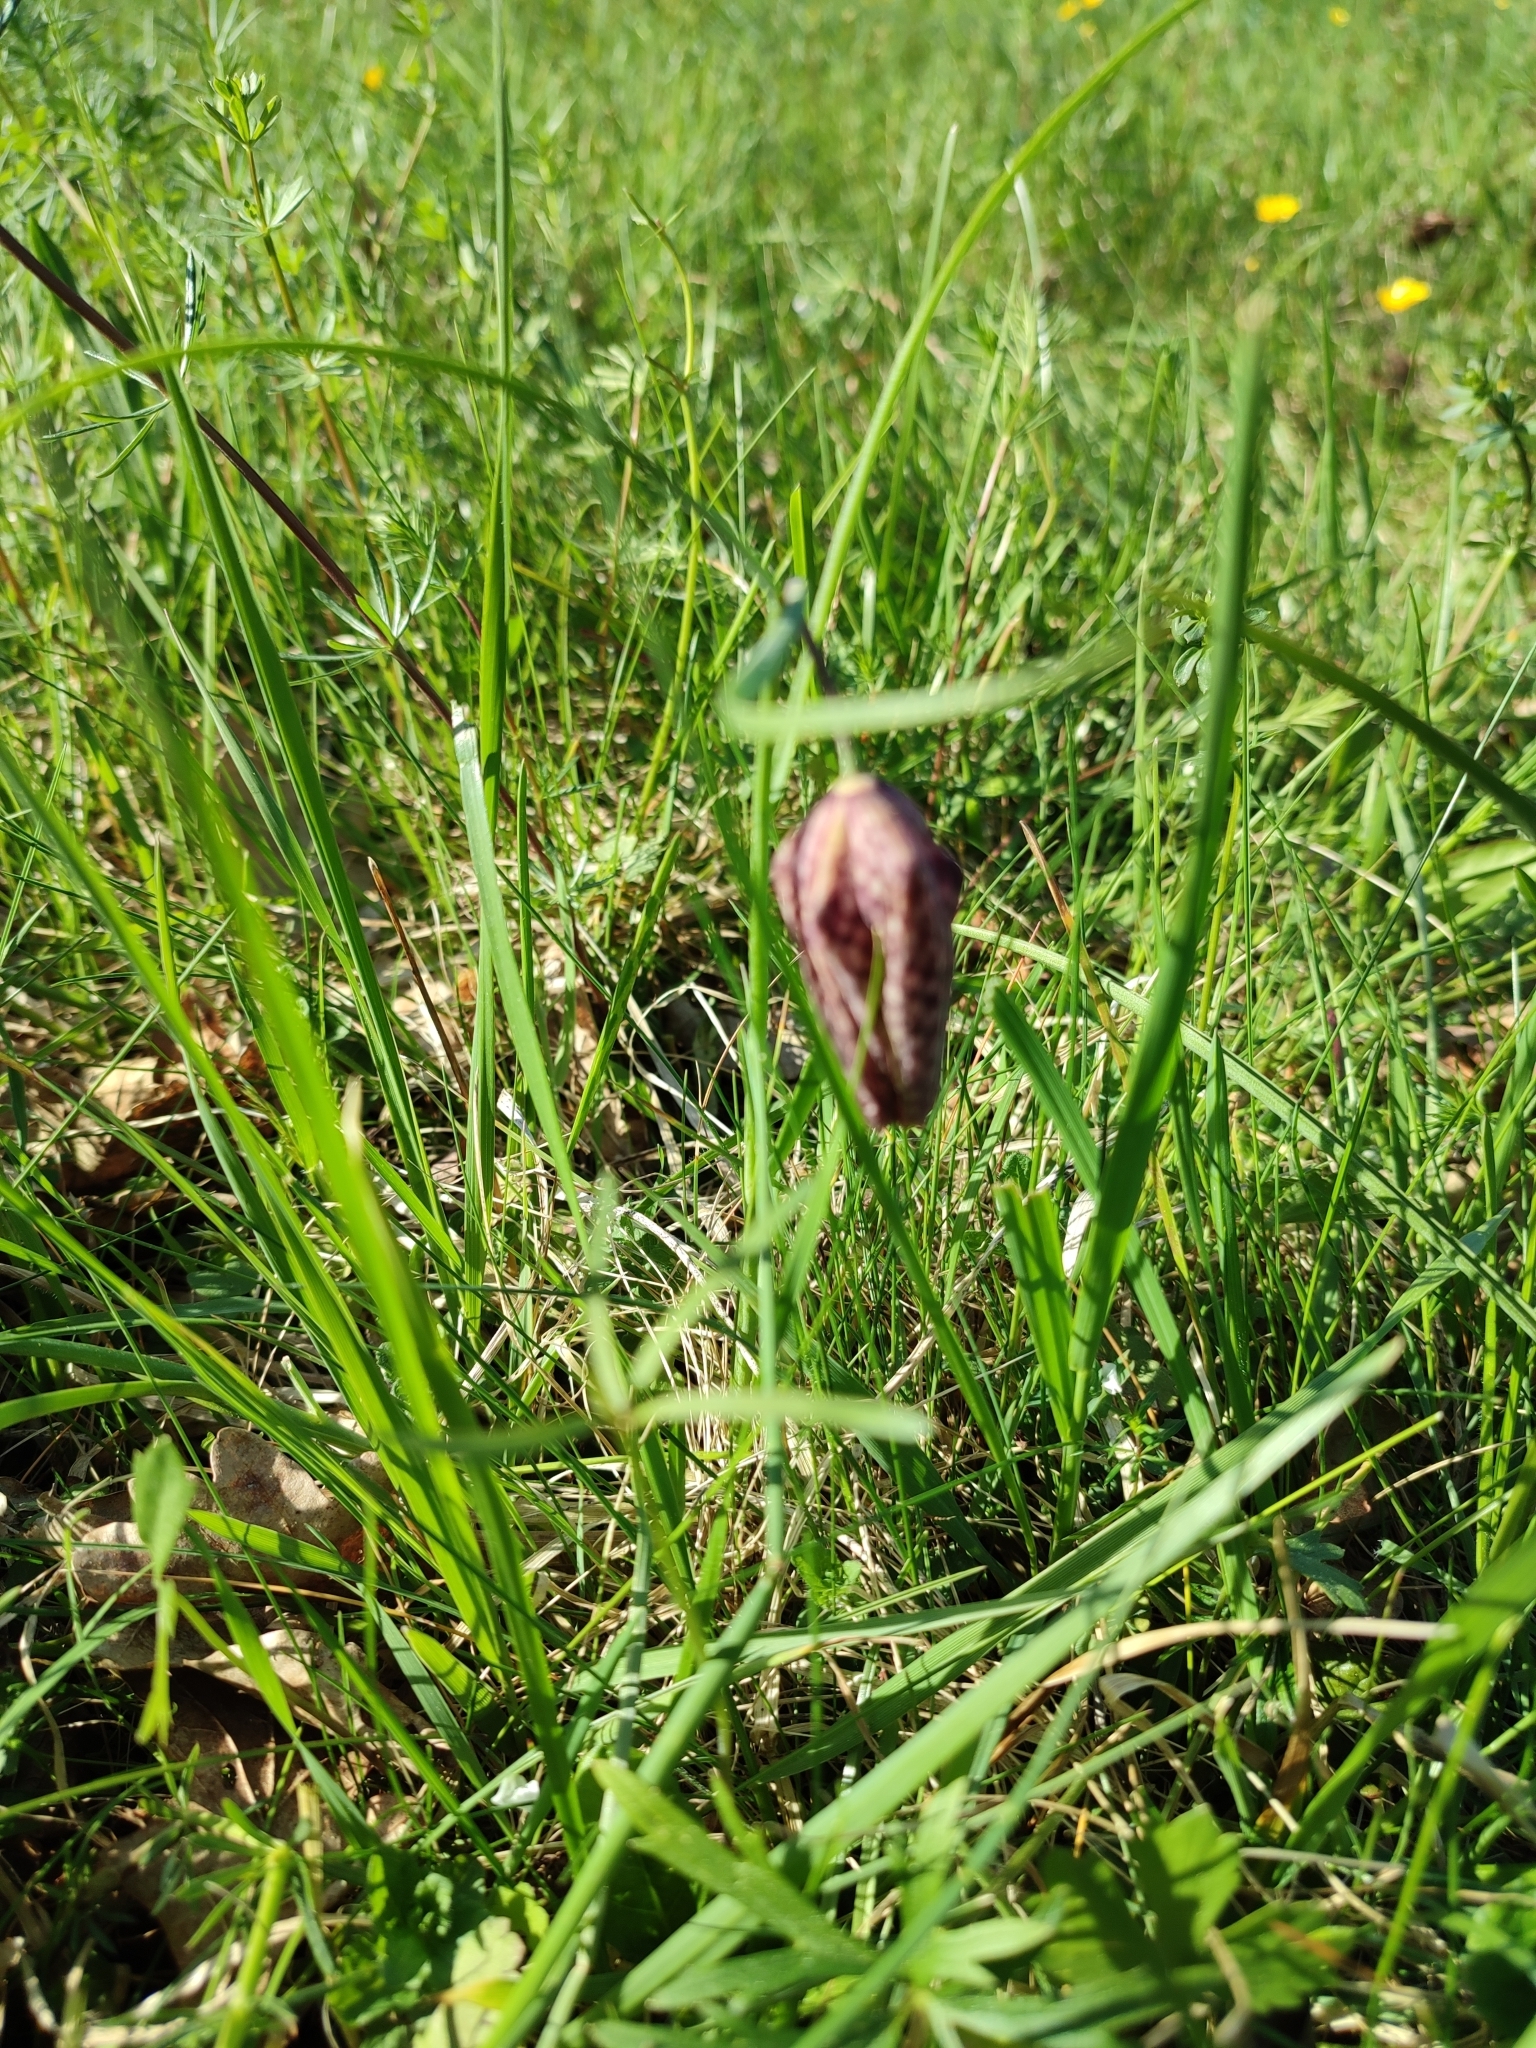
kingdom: Plantae
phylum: Tracheophyta
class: Liliopsida
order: Liliales
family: Liliaceae
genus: Fritillaria
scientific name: Fritillaria meleagris
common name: Fritillary
